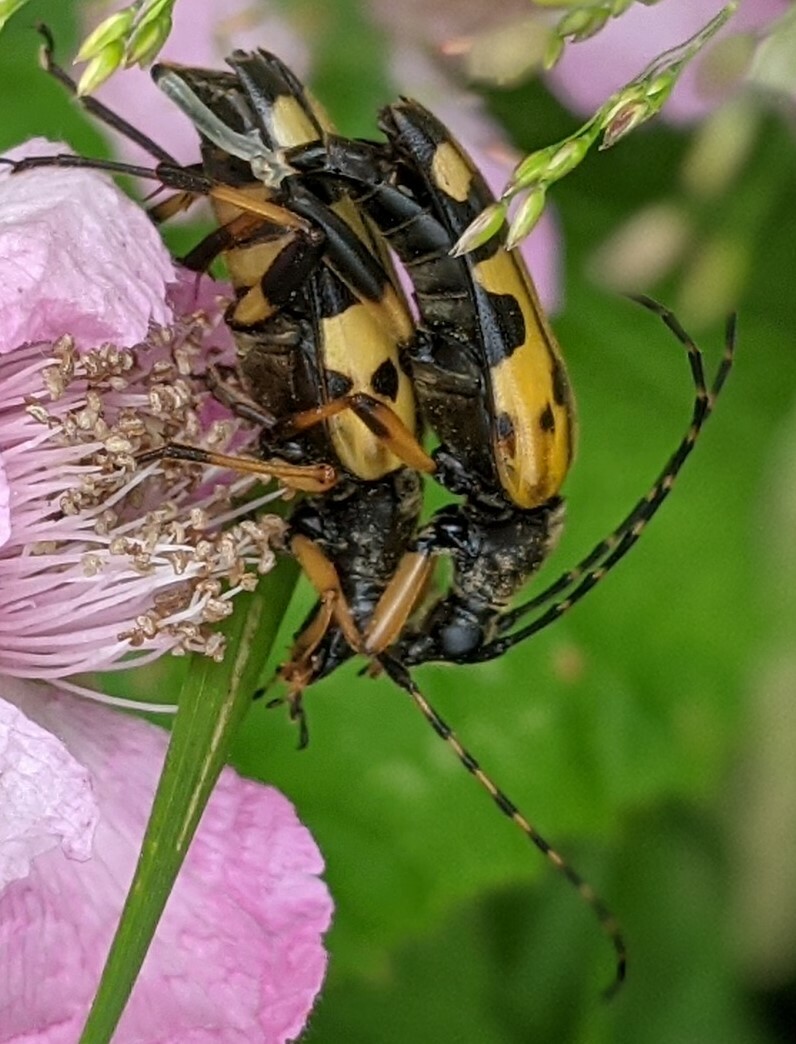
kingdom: Animalia
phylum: Arthropoda
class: Insecta
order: Coleoptera
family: Cerambycidae
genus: Rutpela
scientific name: Rutpela maculata
